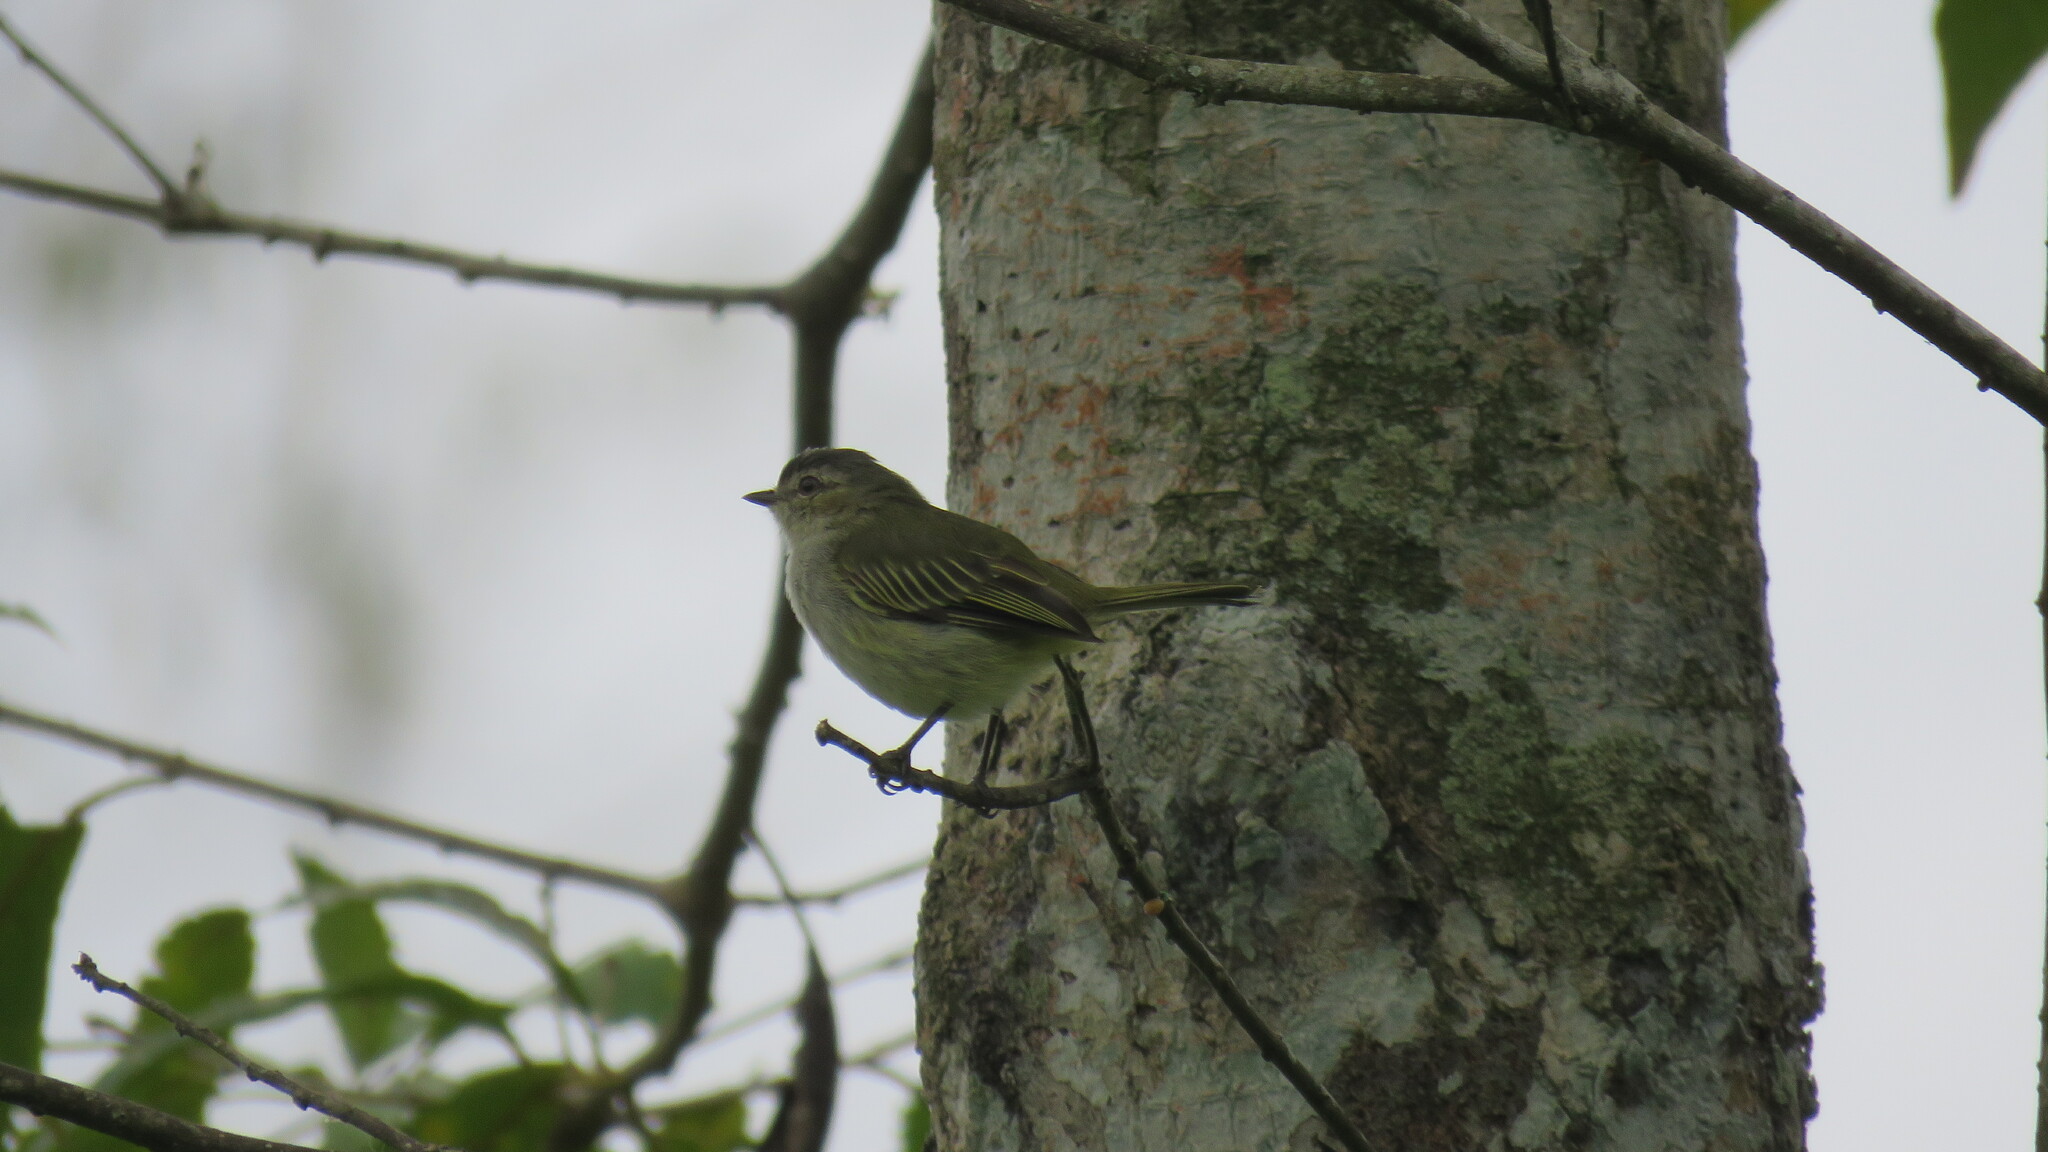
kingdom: Animalia
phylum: Chordata
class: Aves
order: Passeriformes
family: Tyrannidae
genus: Zimmerius
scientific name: Zimmerius vilissimus
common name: Paltry tyrannulet
